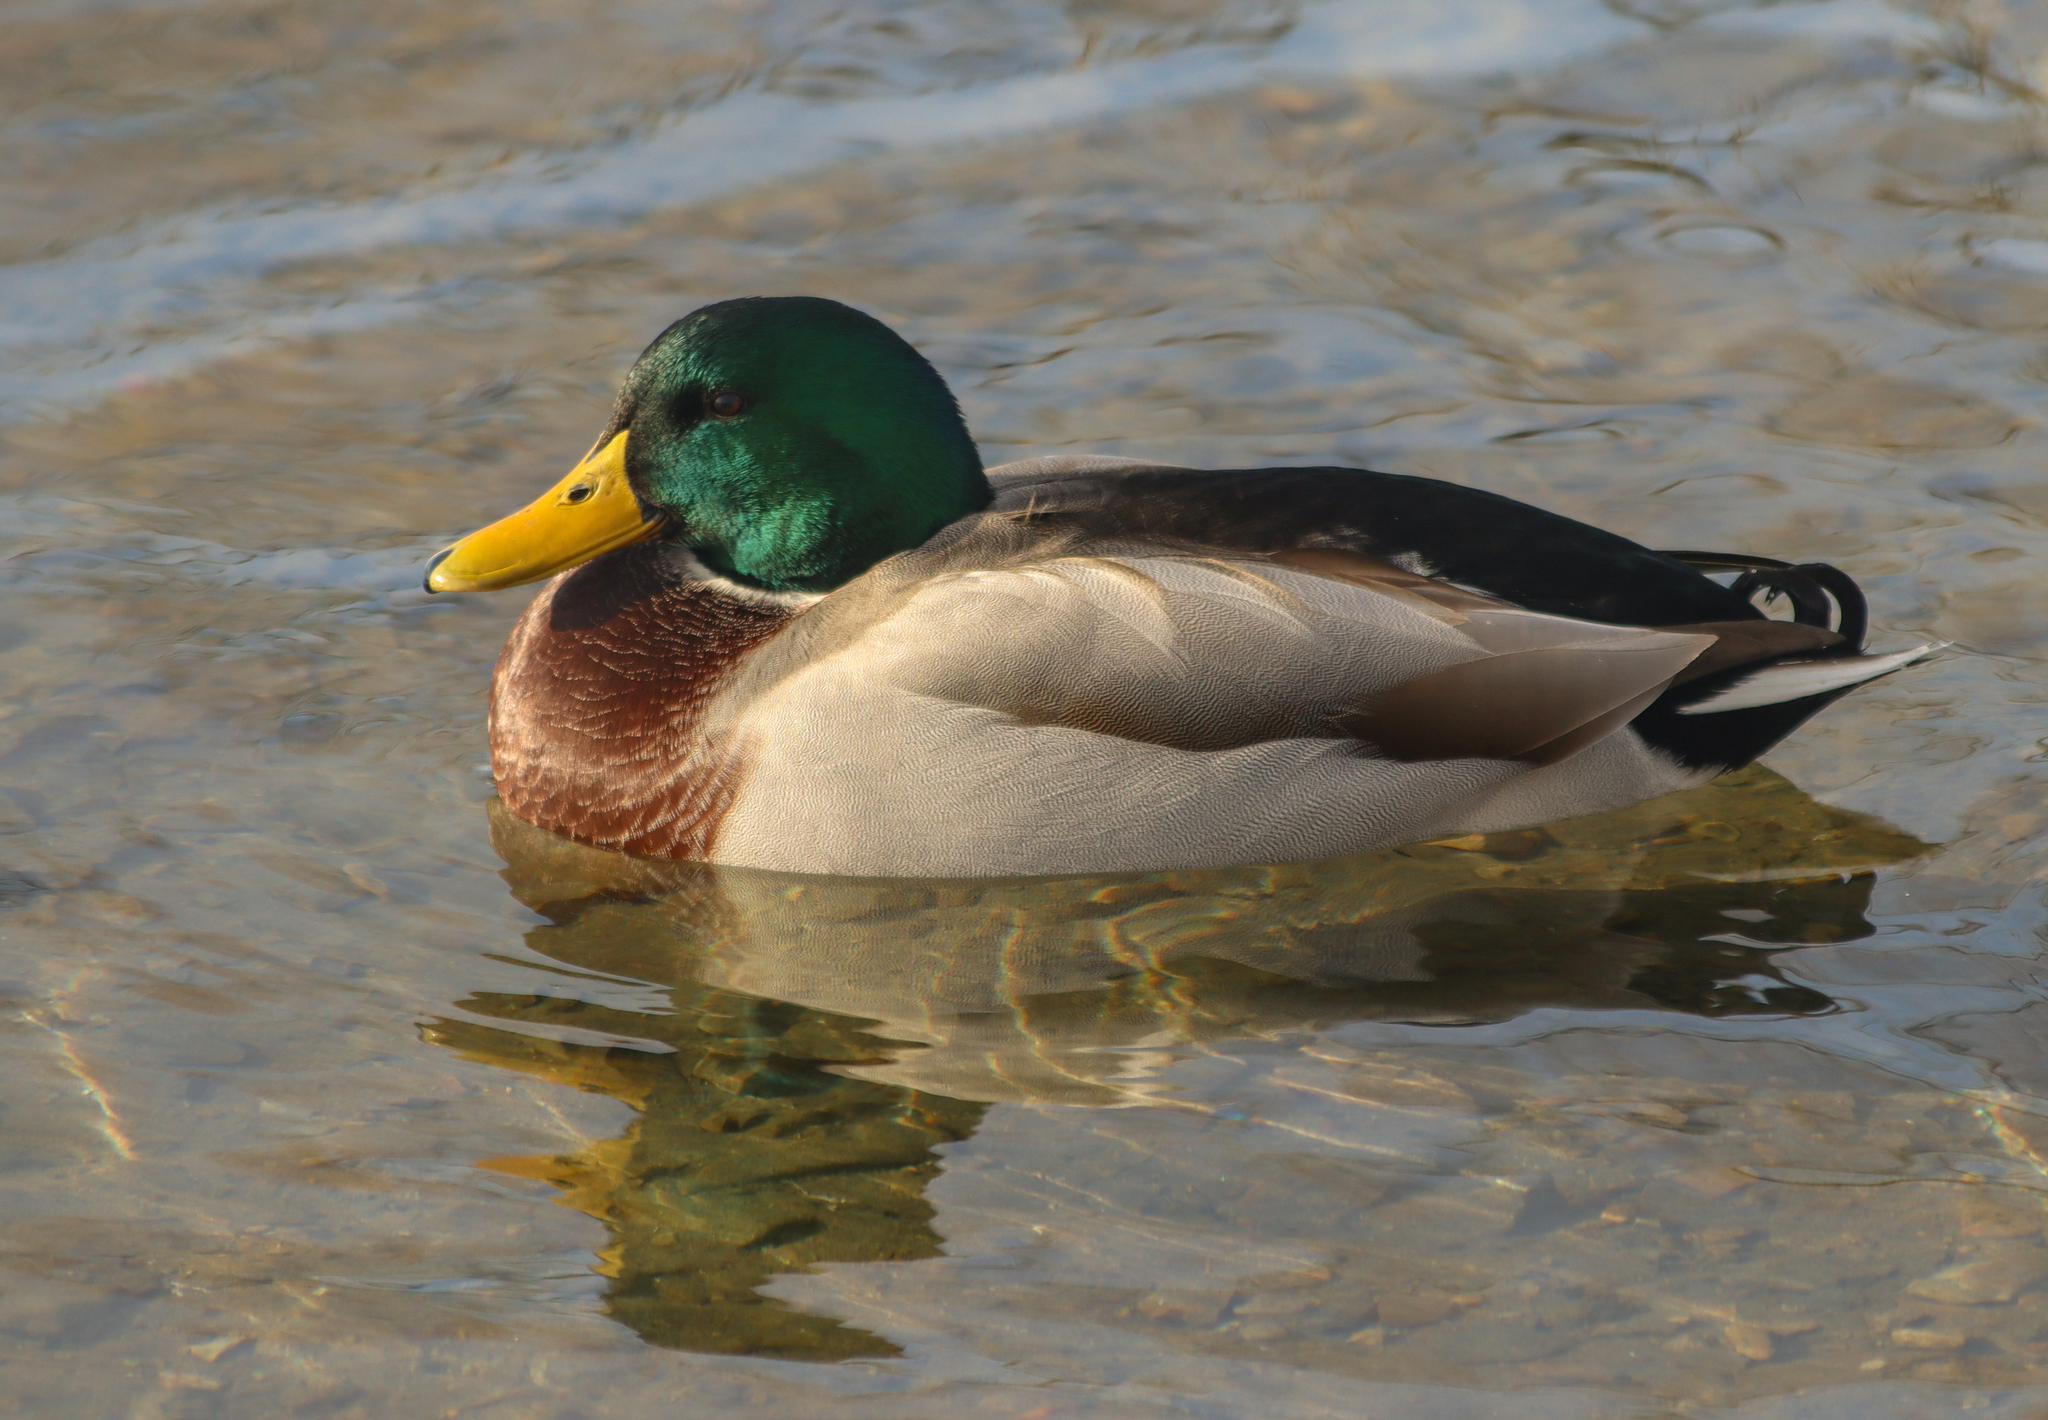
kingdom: Animalia
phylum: Chordata
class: Aves
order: Anseriformes
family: Anatidae
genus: Anas
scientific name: Anas platyrhynchos
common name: Mallard
